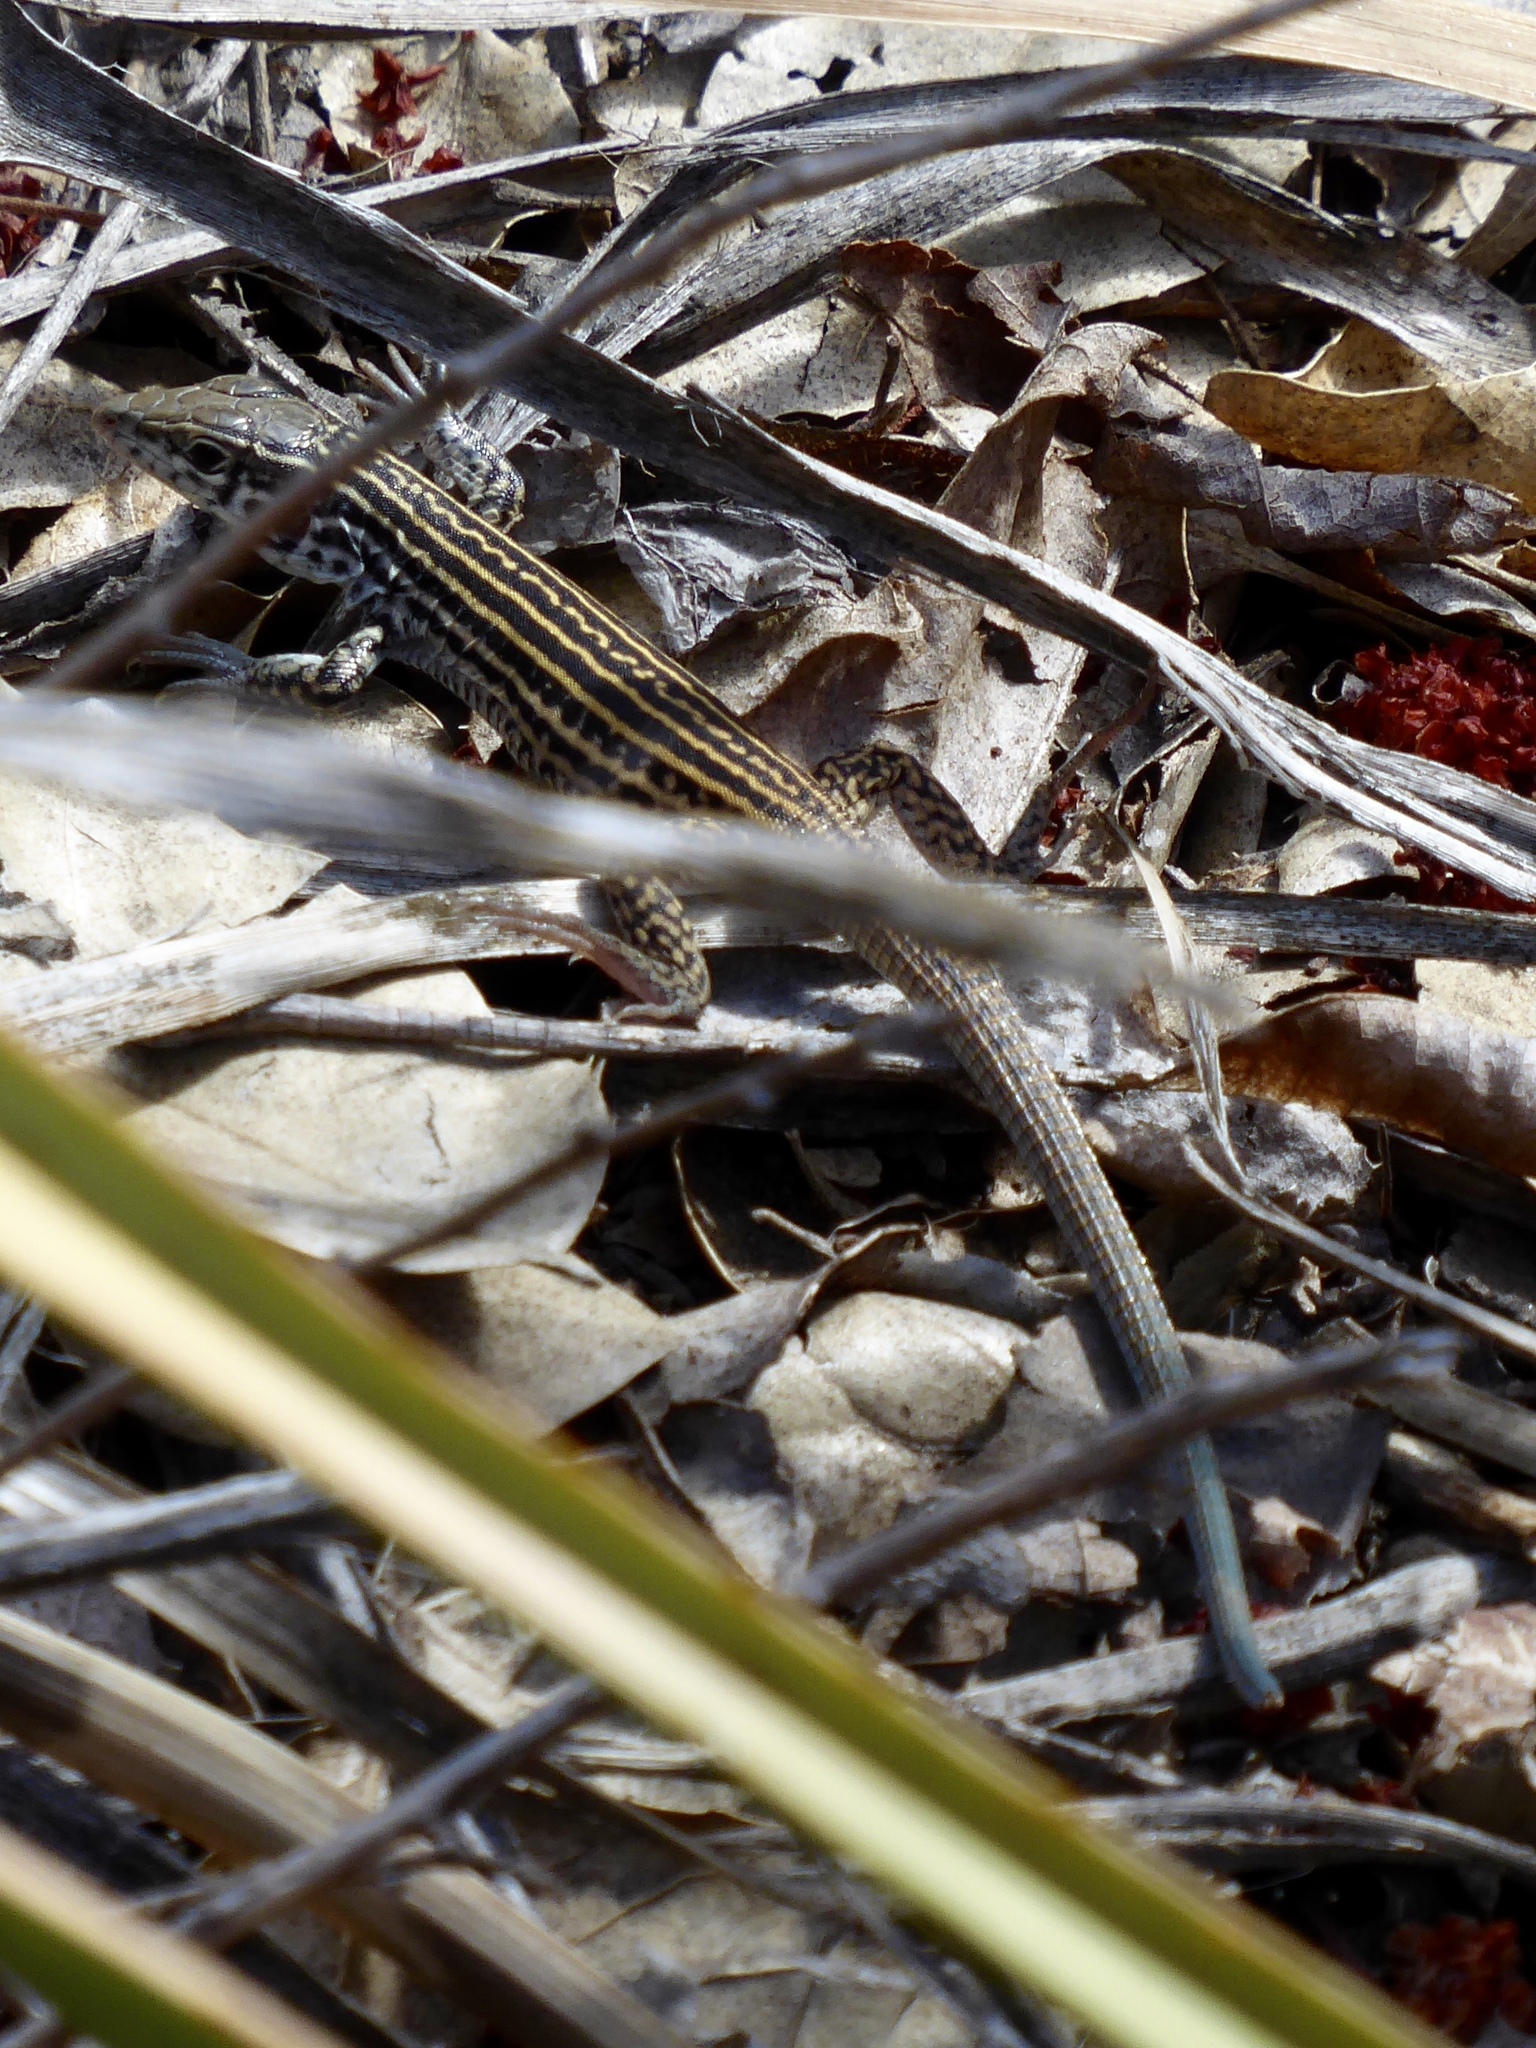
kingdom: Animalia
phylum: Chordata
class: Squamata
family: Teiidae
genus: Aspidoscelis
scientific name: Aspidoscelis tigris
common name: Tiger whiptail
